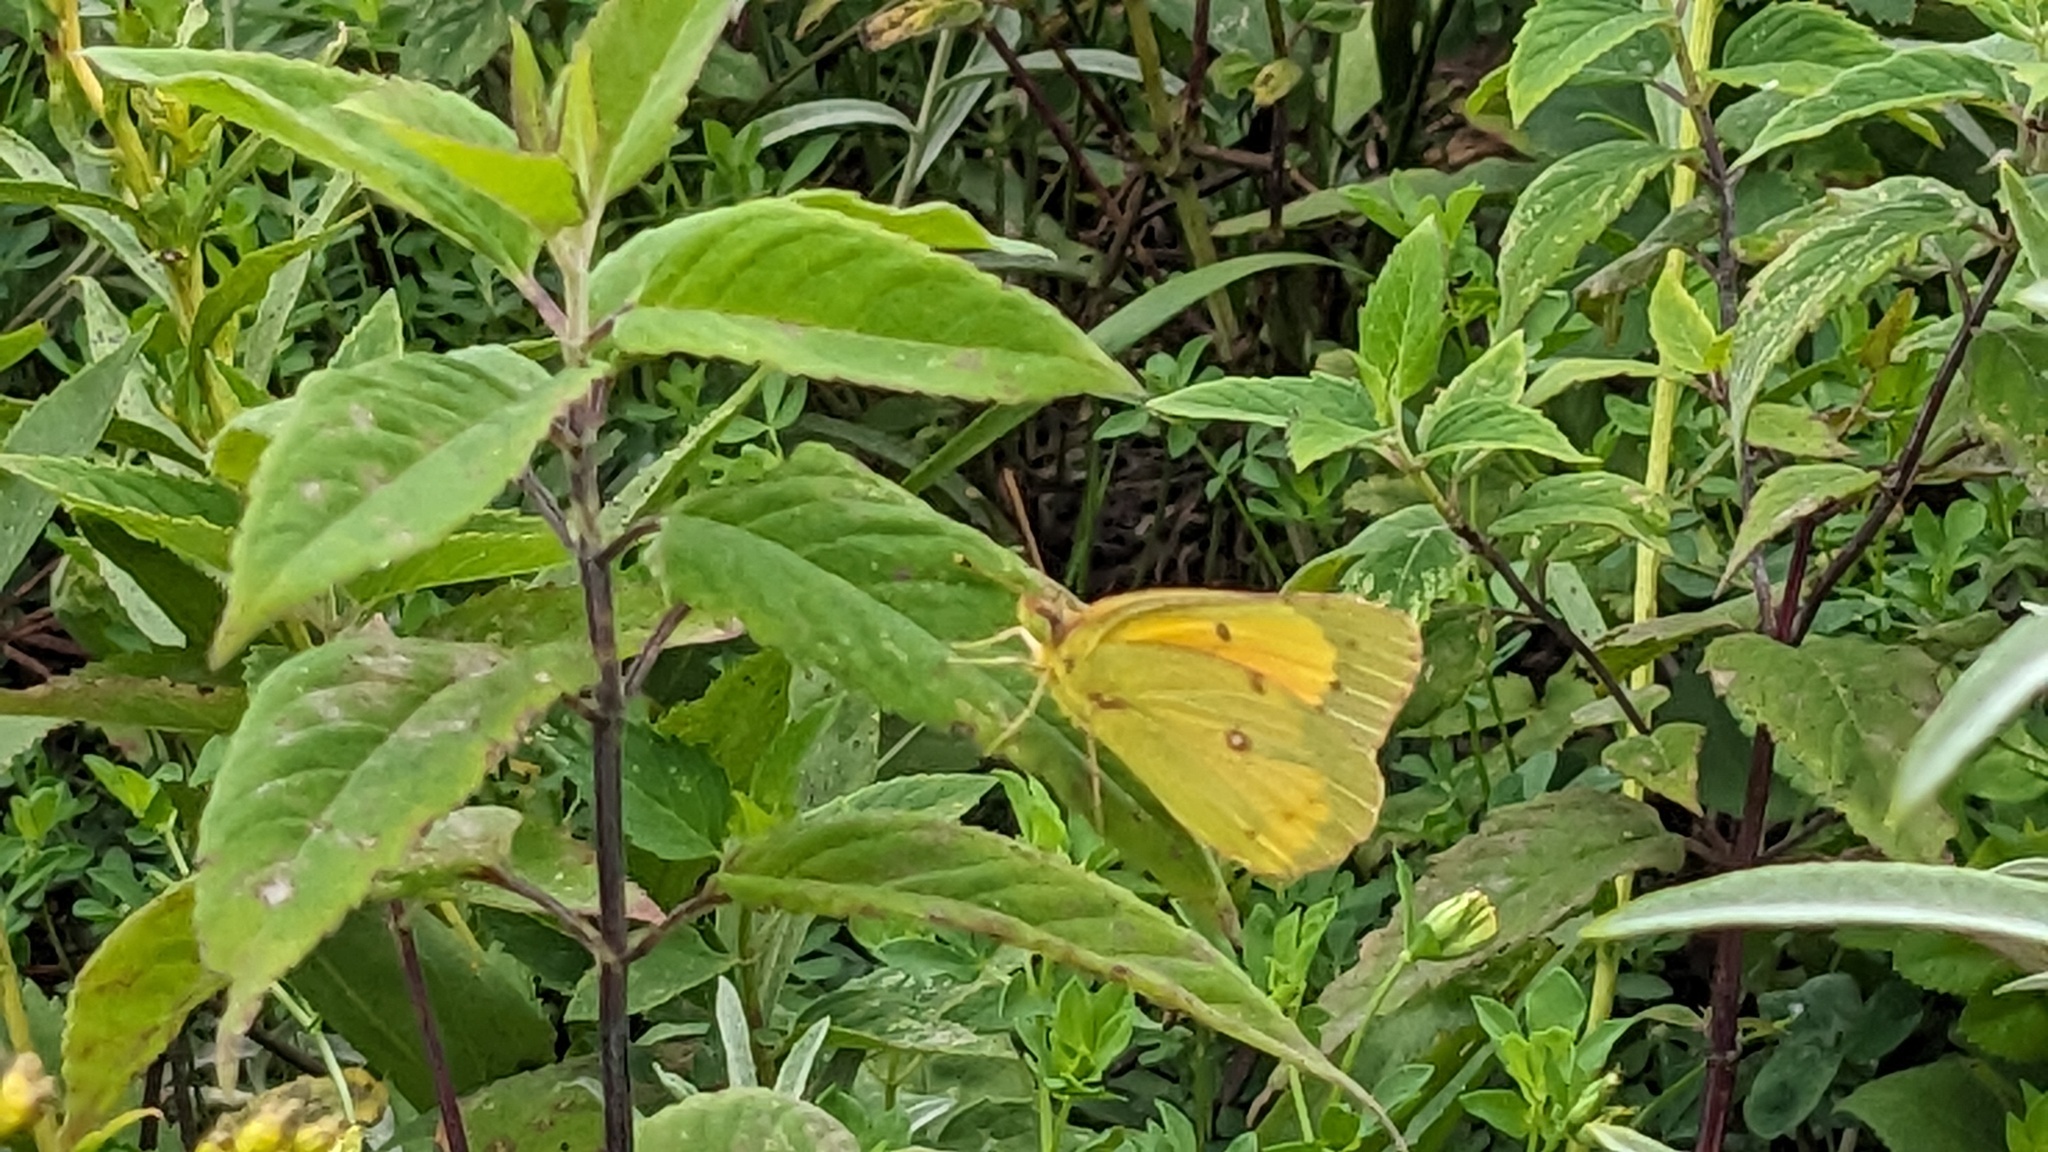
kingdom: Animalia
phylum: Arthropoda
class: Insecta
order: Lepidoptera
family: Pieridae
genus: Colias
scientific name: Colias eurytheme
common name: Alfalfa butterfly
